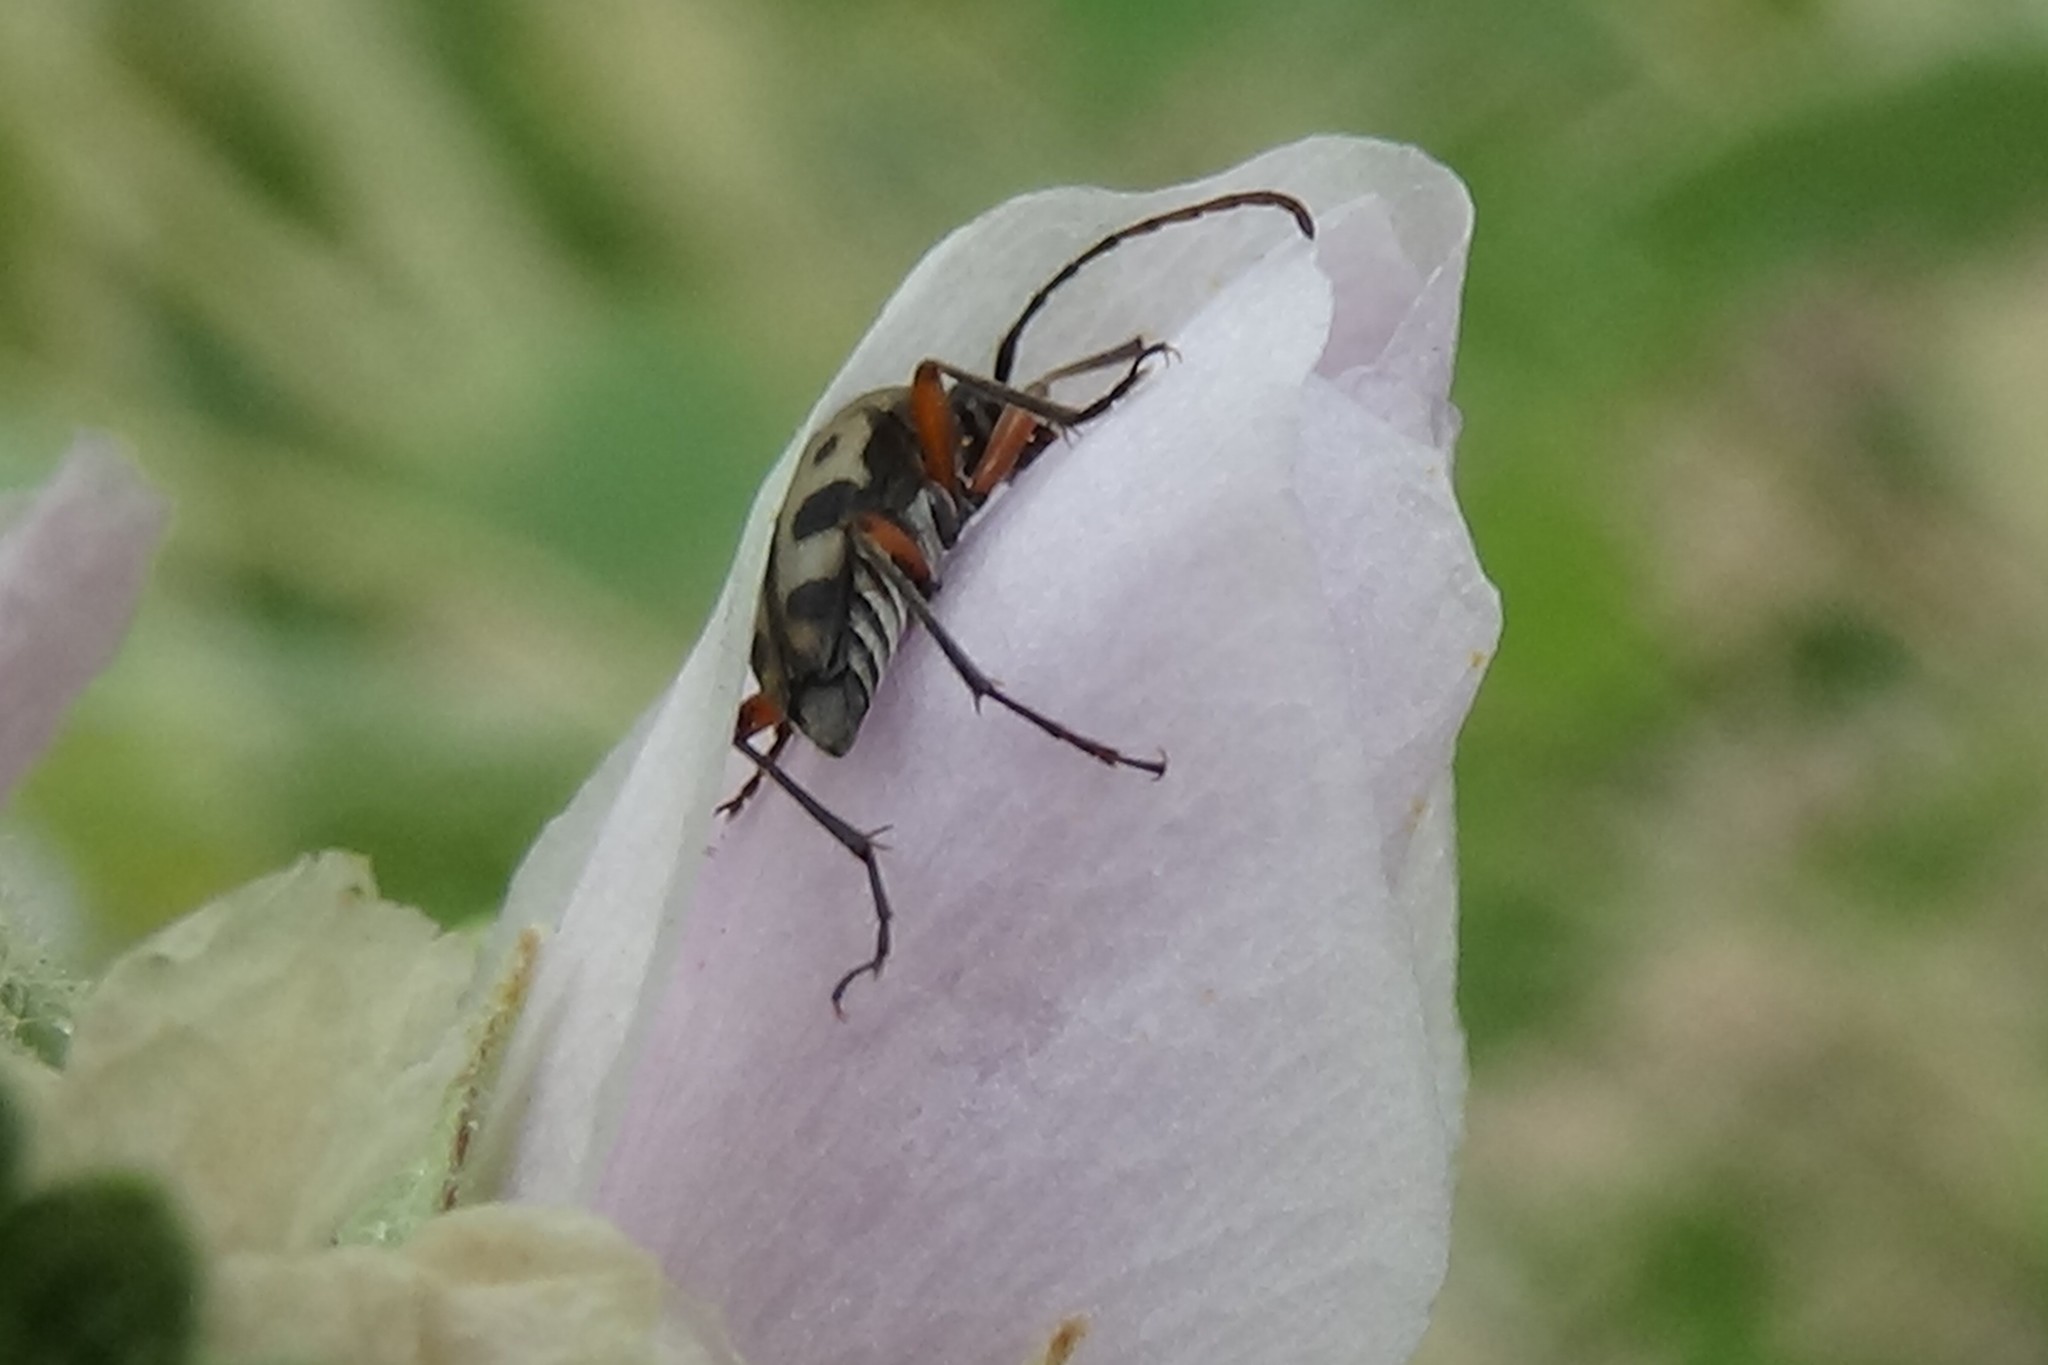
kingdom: Animalia
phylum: Arthropoda
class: Insecta
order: Coleoptera
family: Cerambycidae
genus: Judolia
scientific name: Judolia sexspilota
